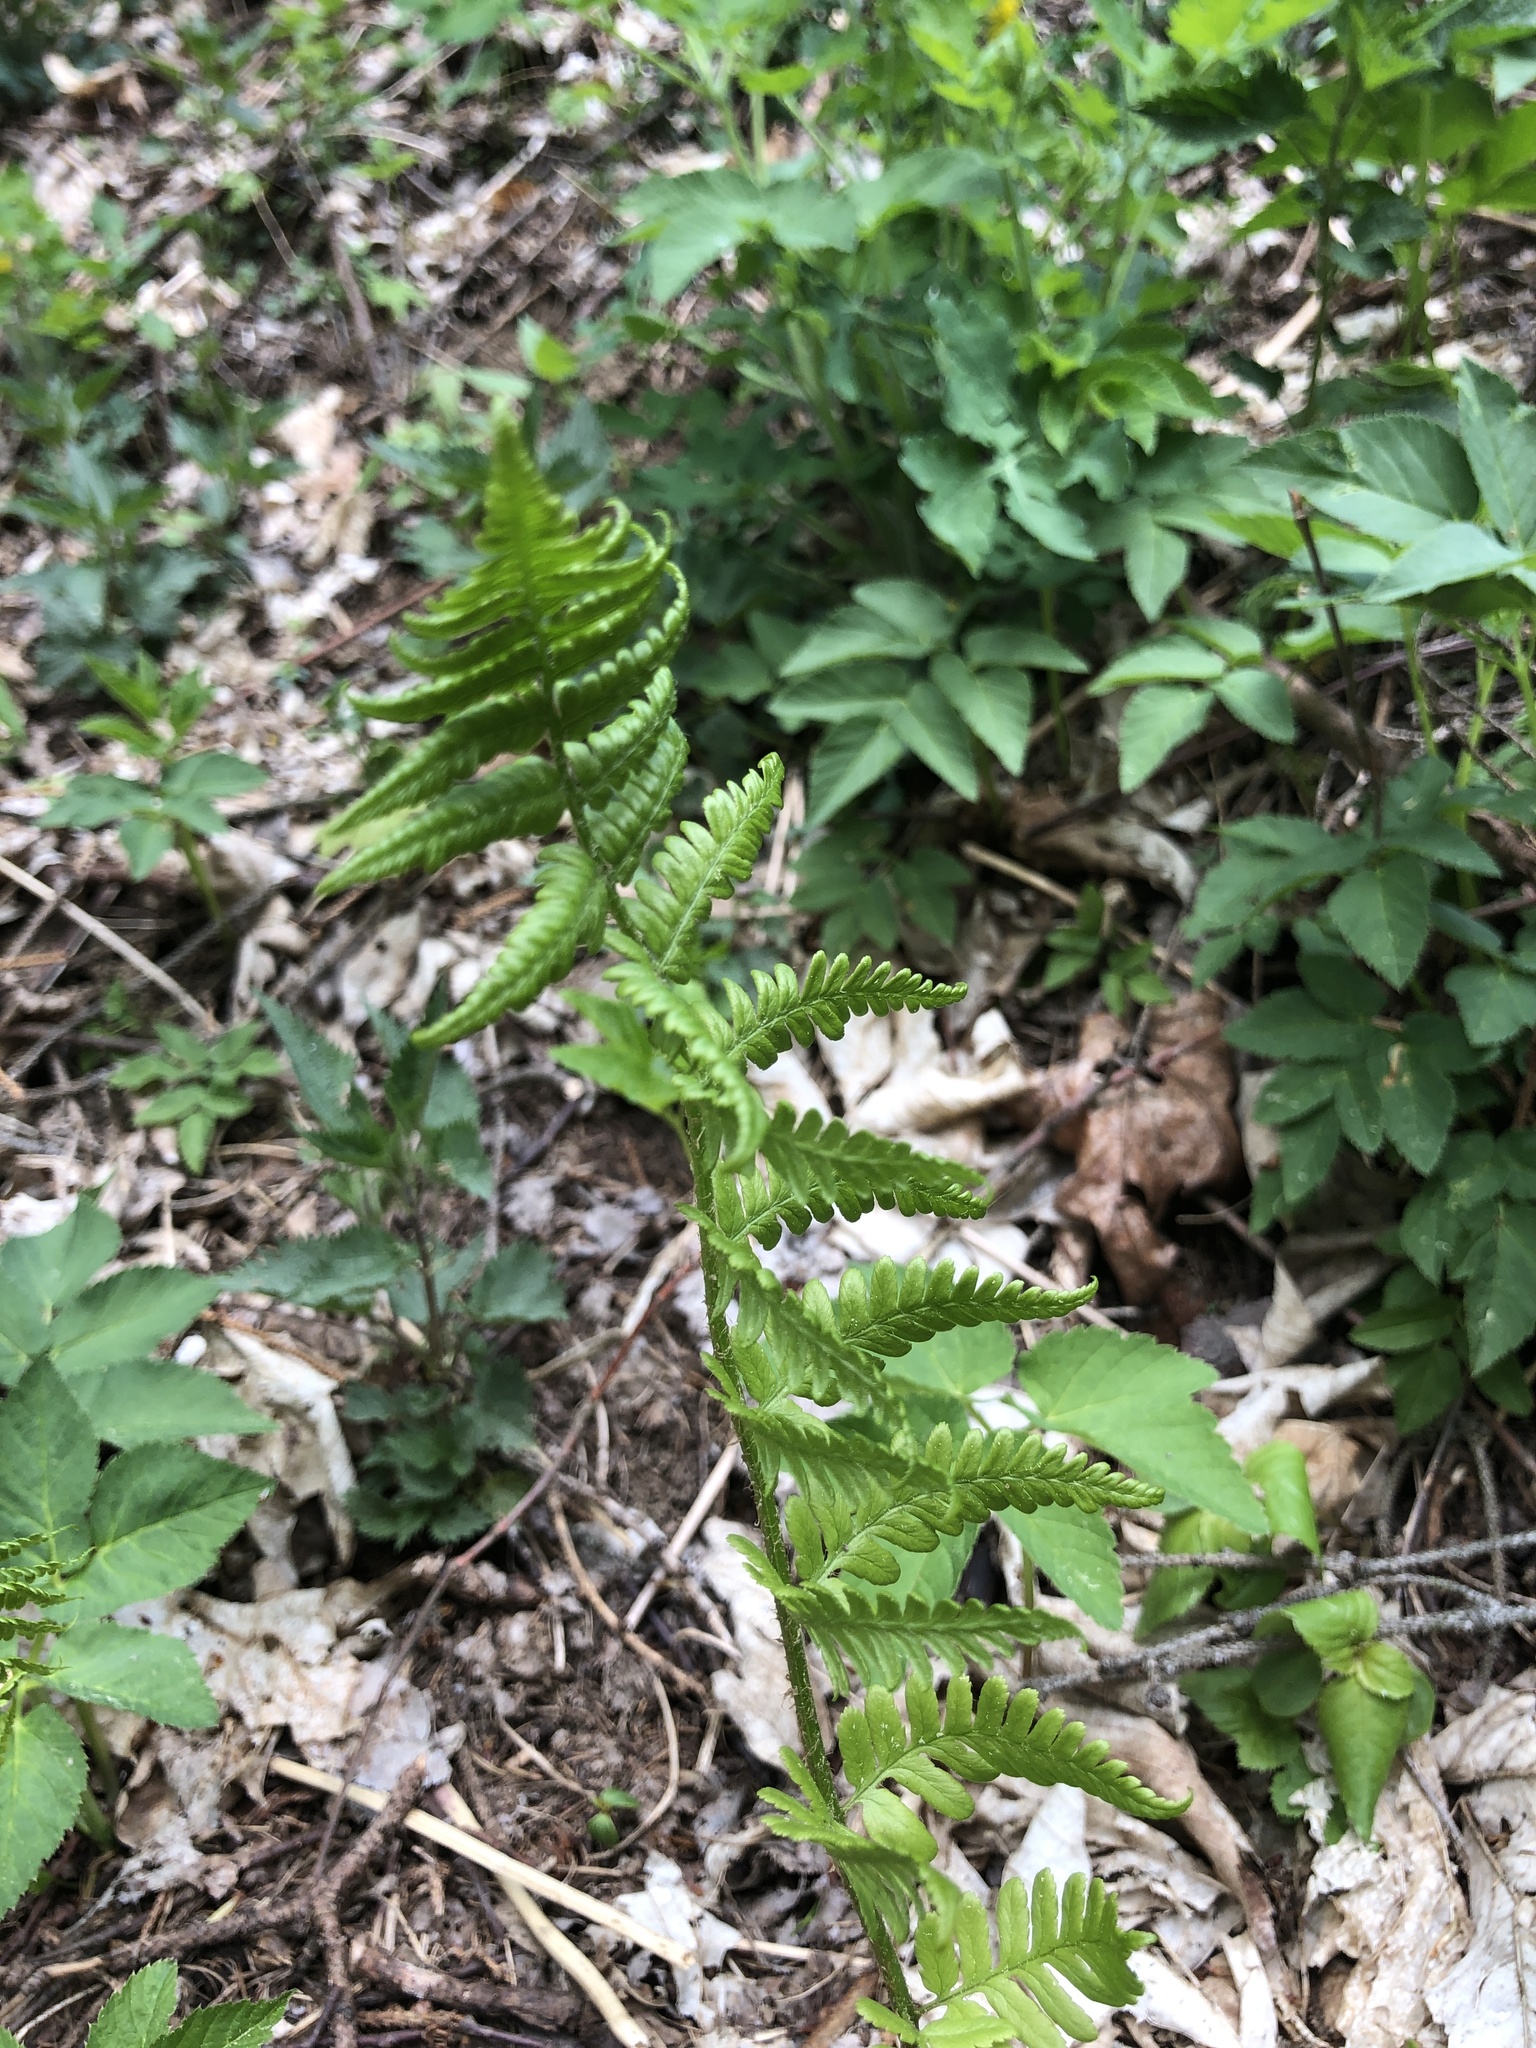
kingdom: Plantae
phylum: Tracheophyta
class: Polypodiopsida
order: Polypodiales
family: Dryopteridaceae
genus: Dryopteris
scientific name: Dryopteris filix-mas
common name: Male fern
